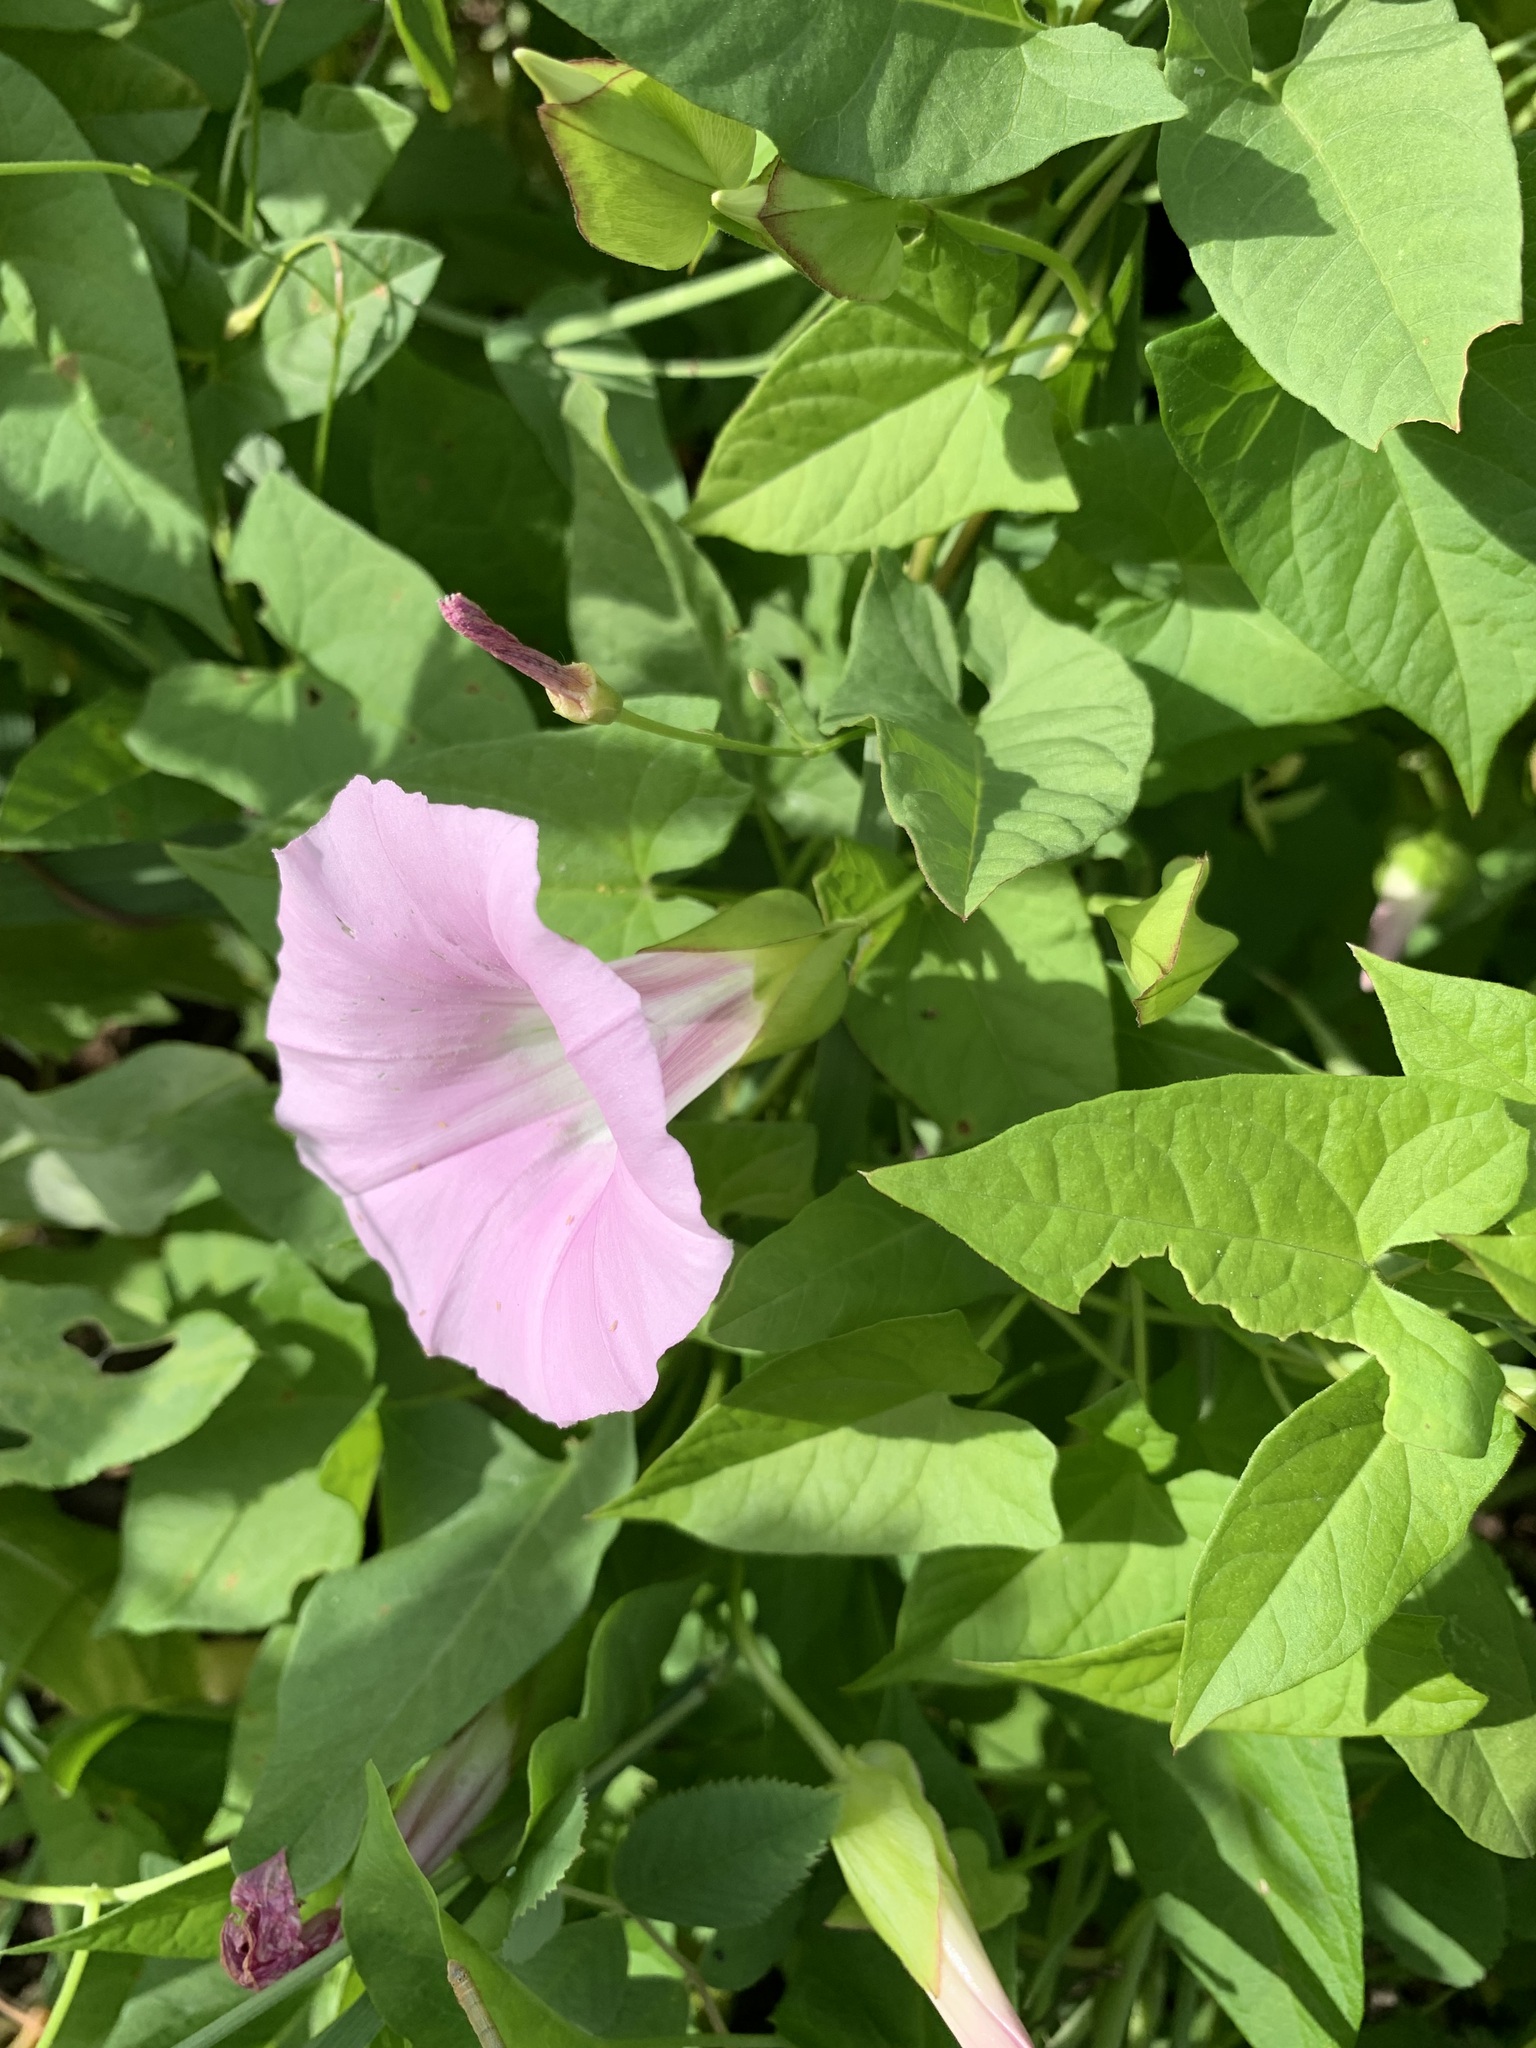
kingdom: Plantae
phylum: Tracheophyta
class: Magnoliopsida
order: Solanales
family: Convolvulaceae
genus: Calystegia
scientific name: Calystegia sepium
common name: Hedge bindweed
